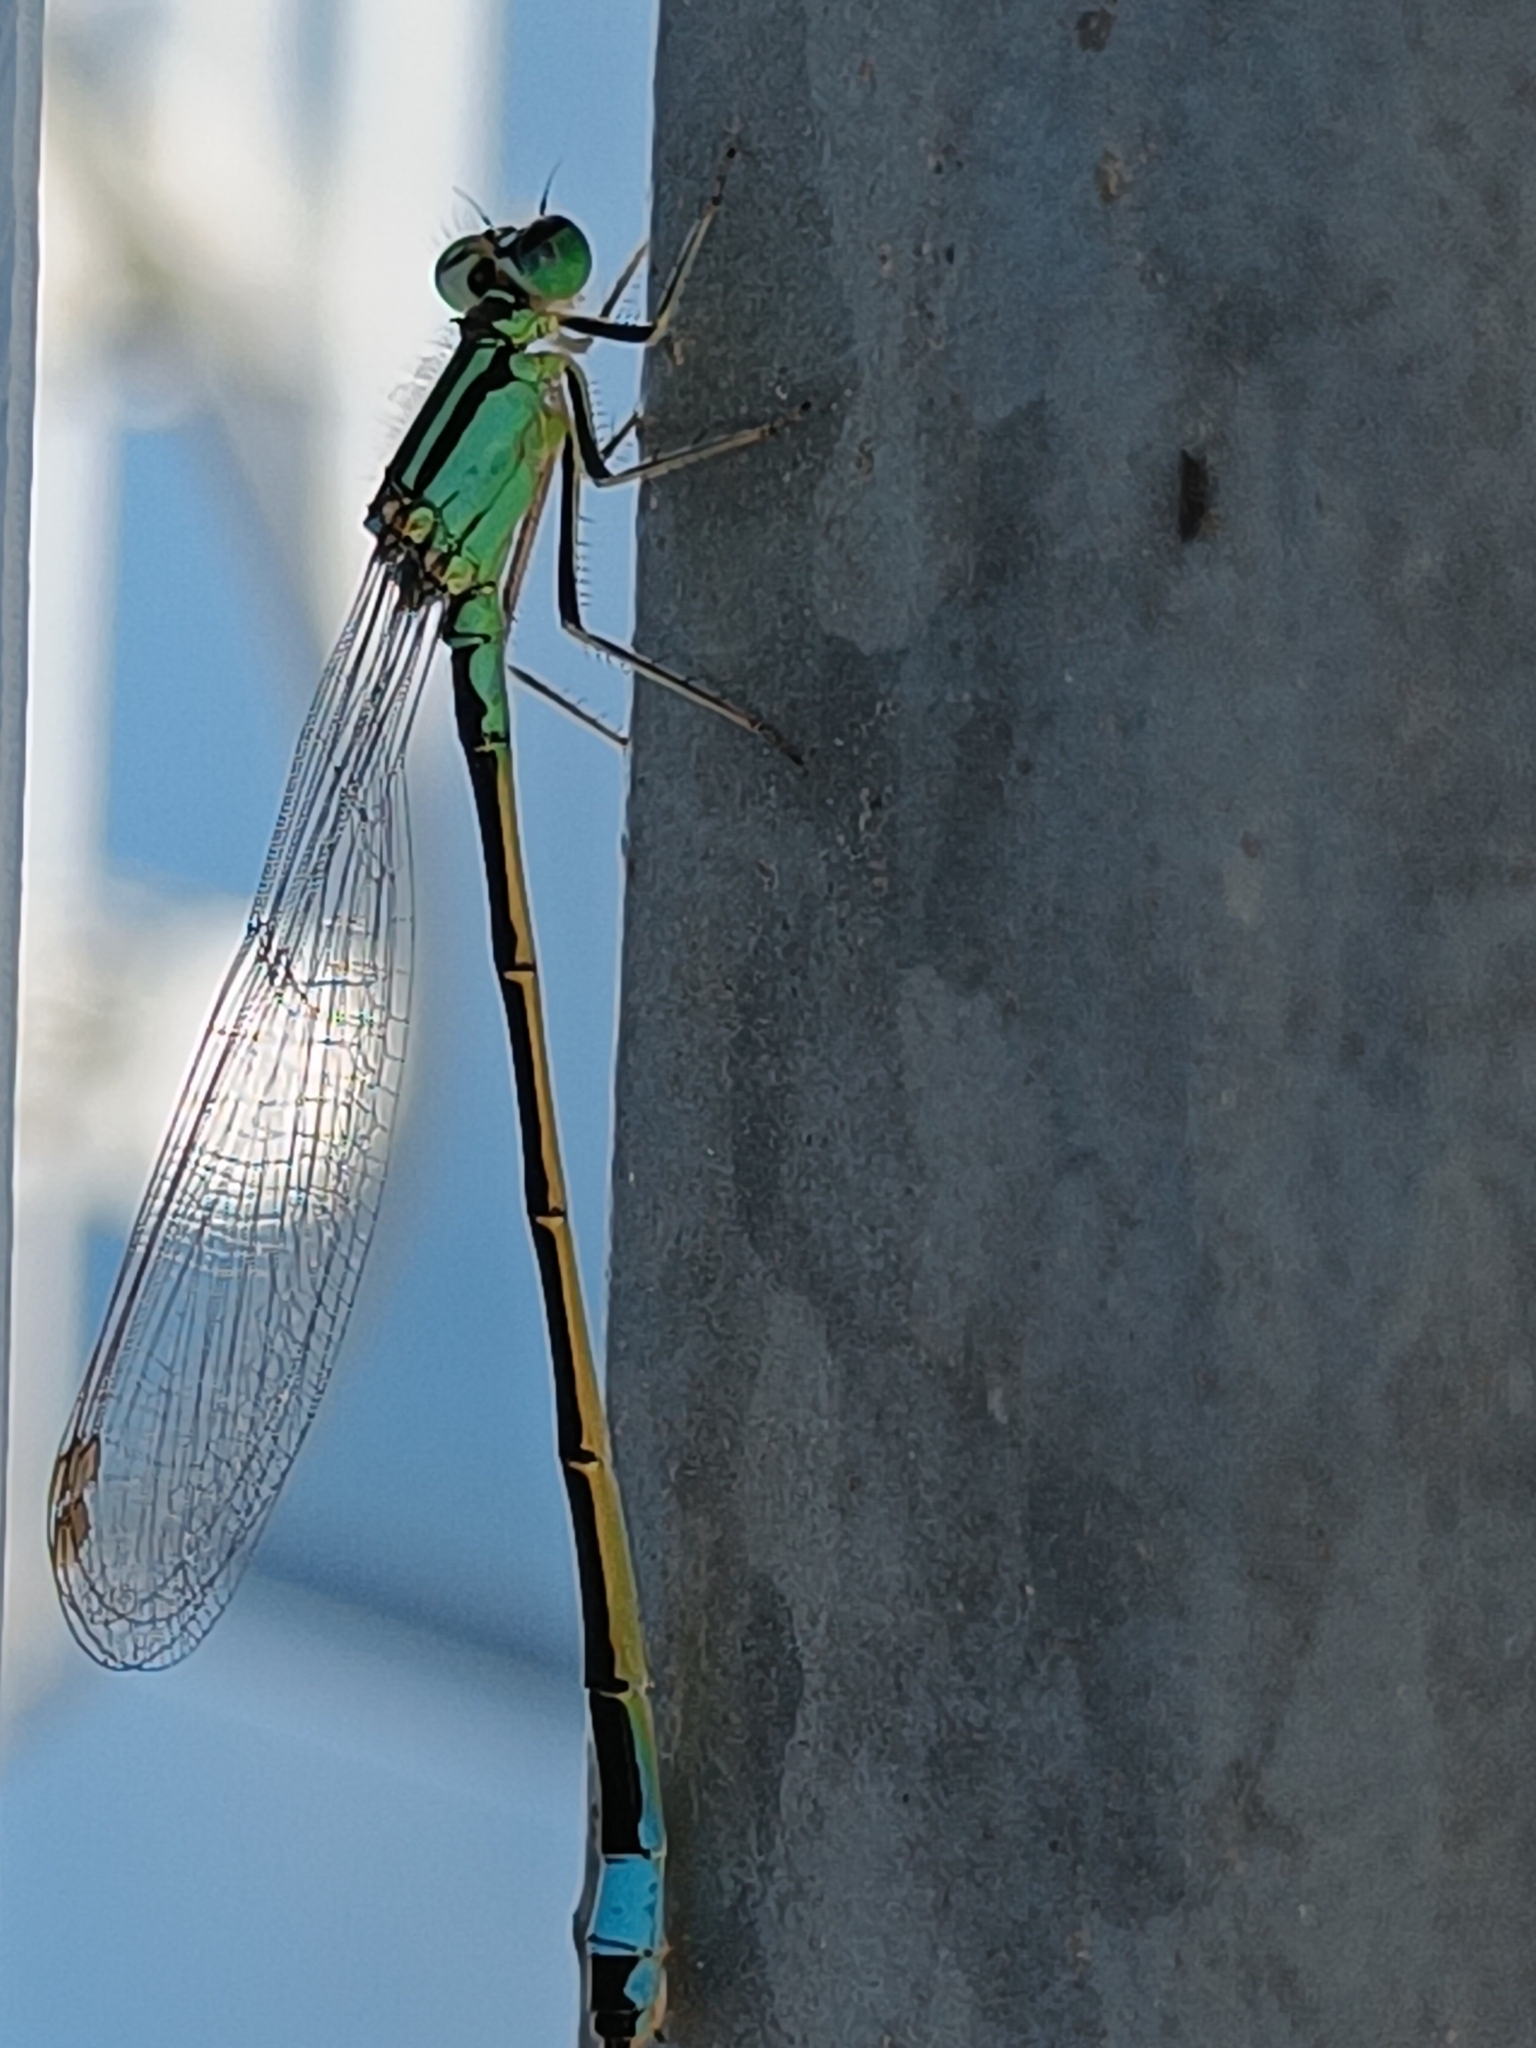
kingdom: Animalia
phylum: Arthropoda
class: Insecta
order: Odonata
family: Coenagrionidae
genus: Ischnura
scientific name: Ischnura elegans
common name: Blue-tailed damselfly
